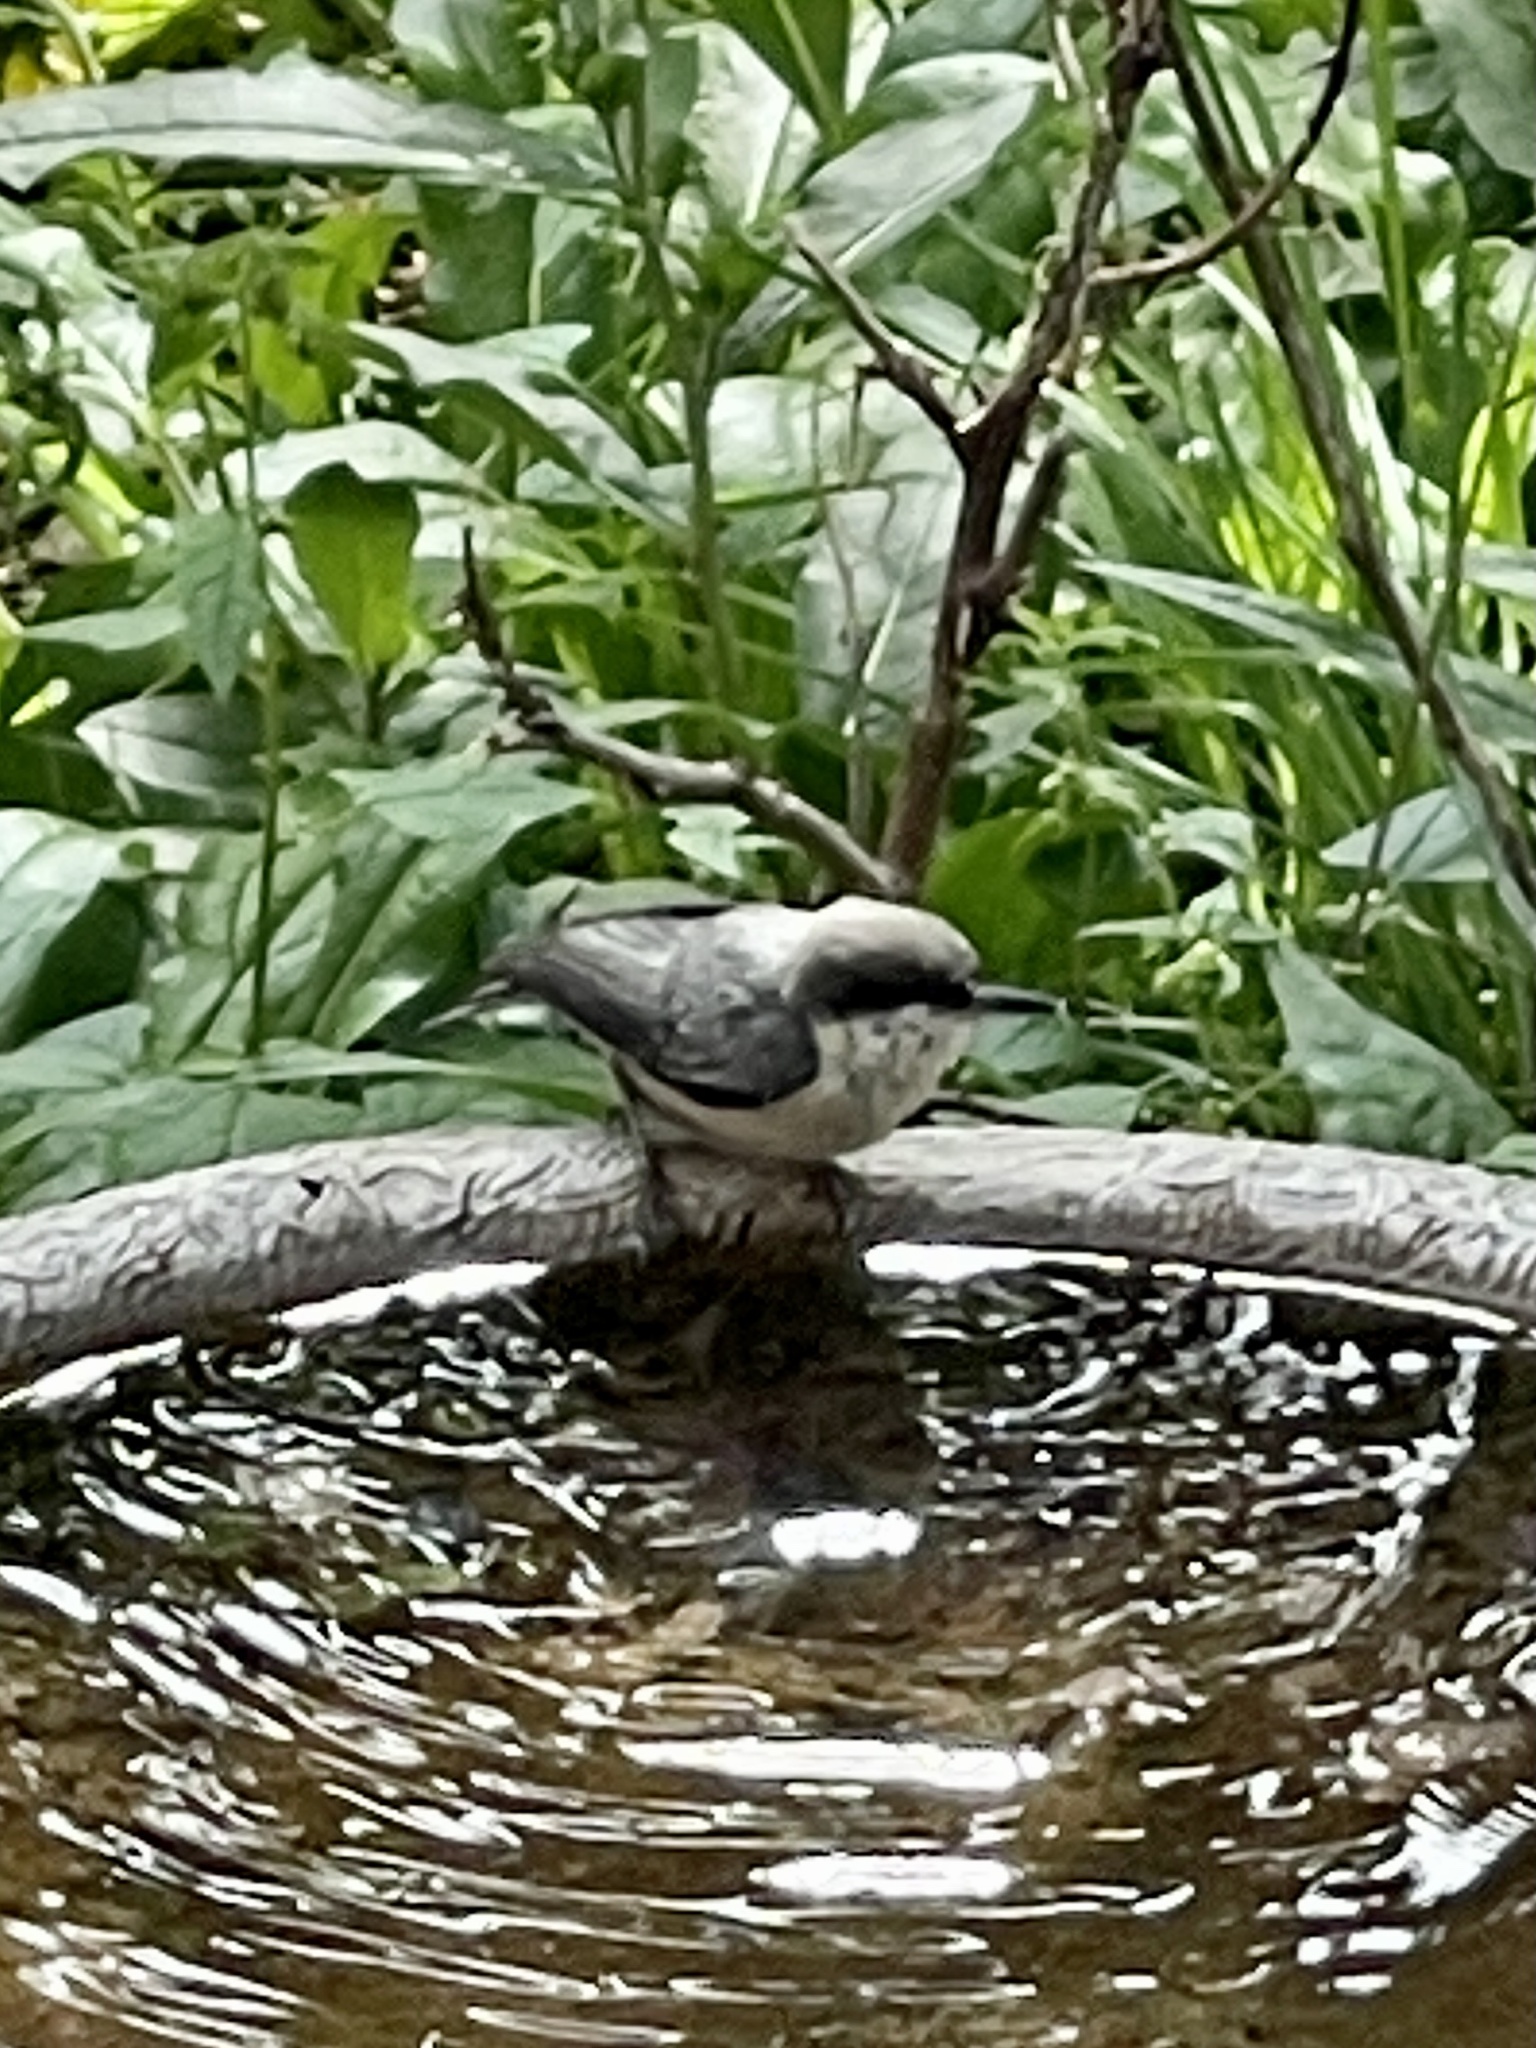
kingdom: Animalia
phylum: Chordata
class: Aves
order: Passeriformes
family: Sittidae
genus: Sitta
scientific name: Sitta pygmaea
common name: Pygmy nuthatch
